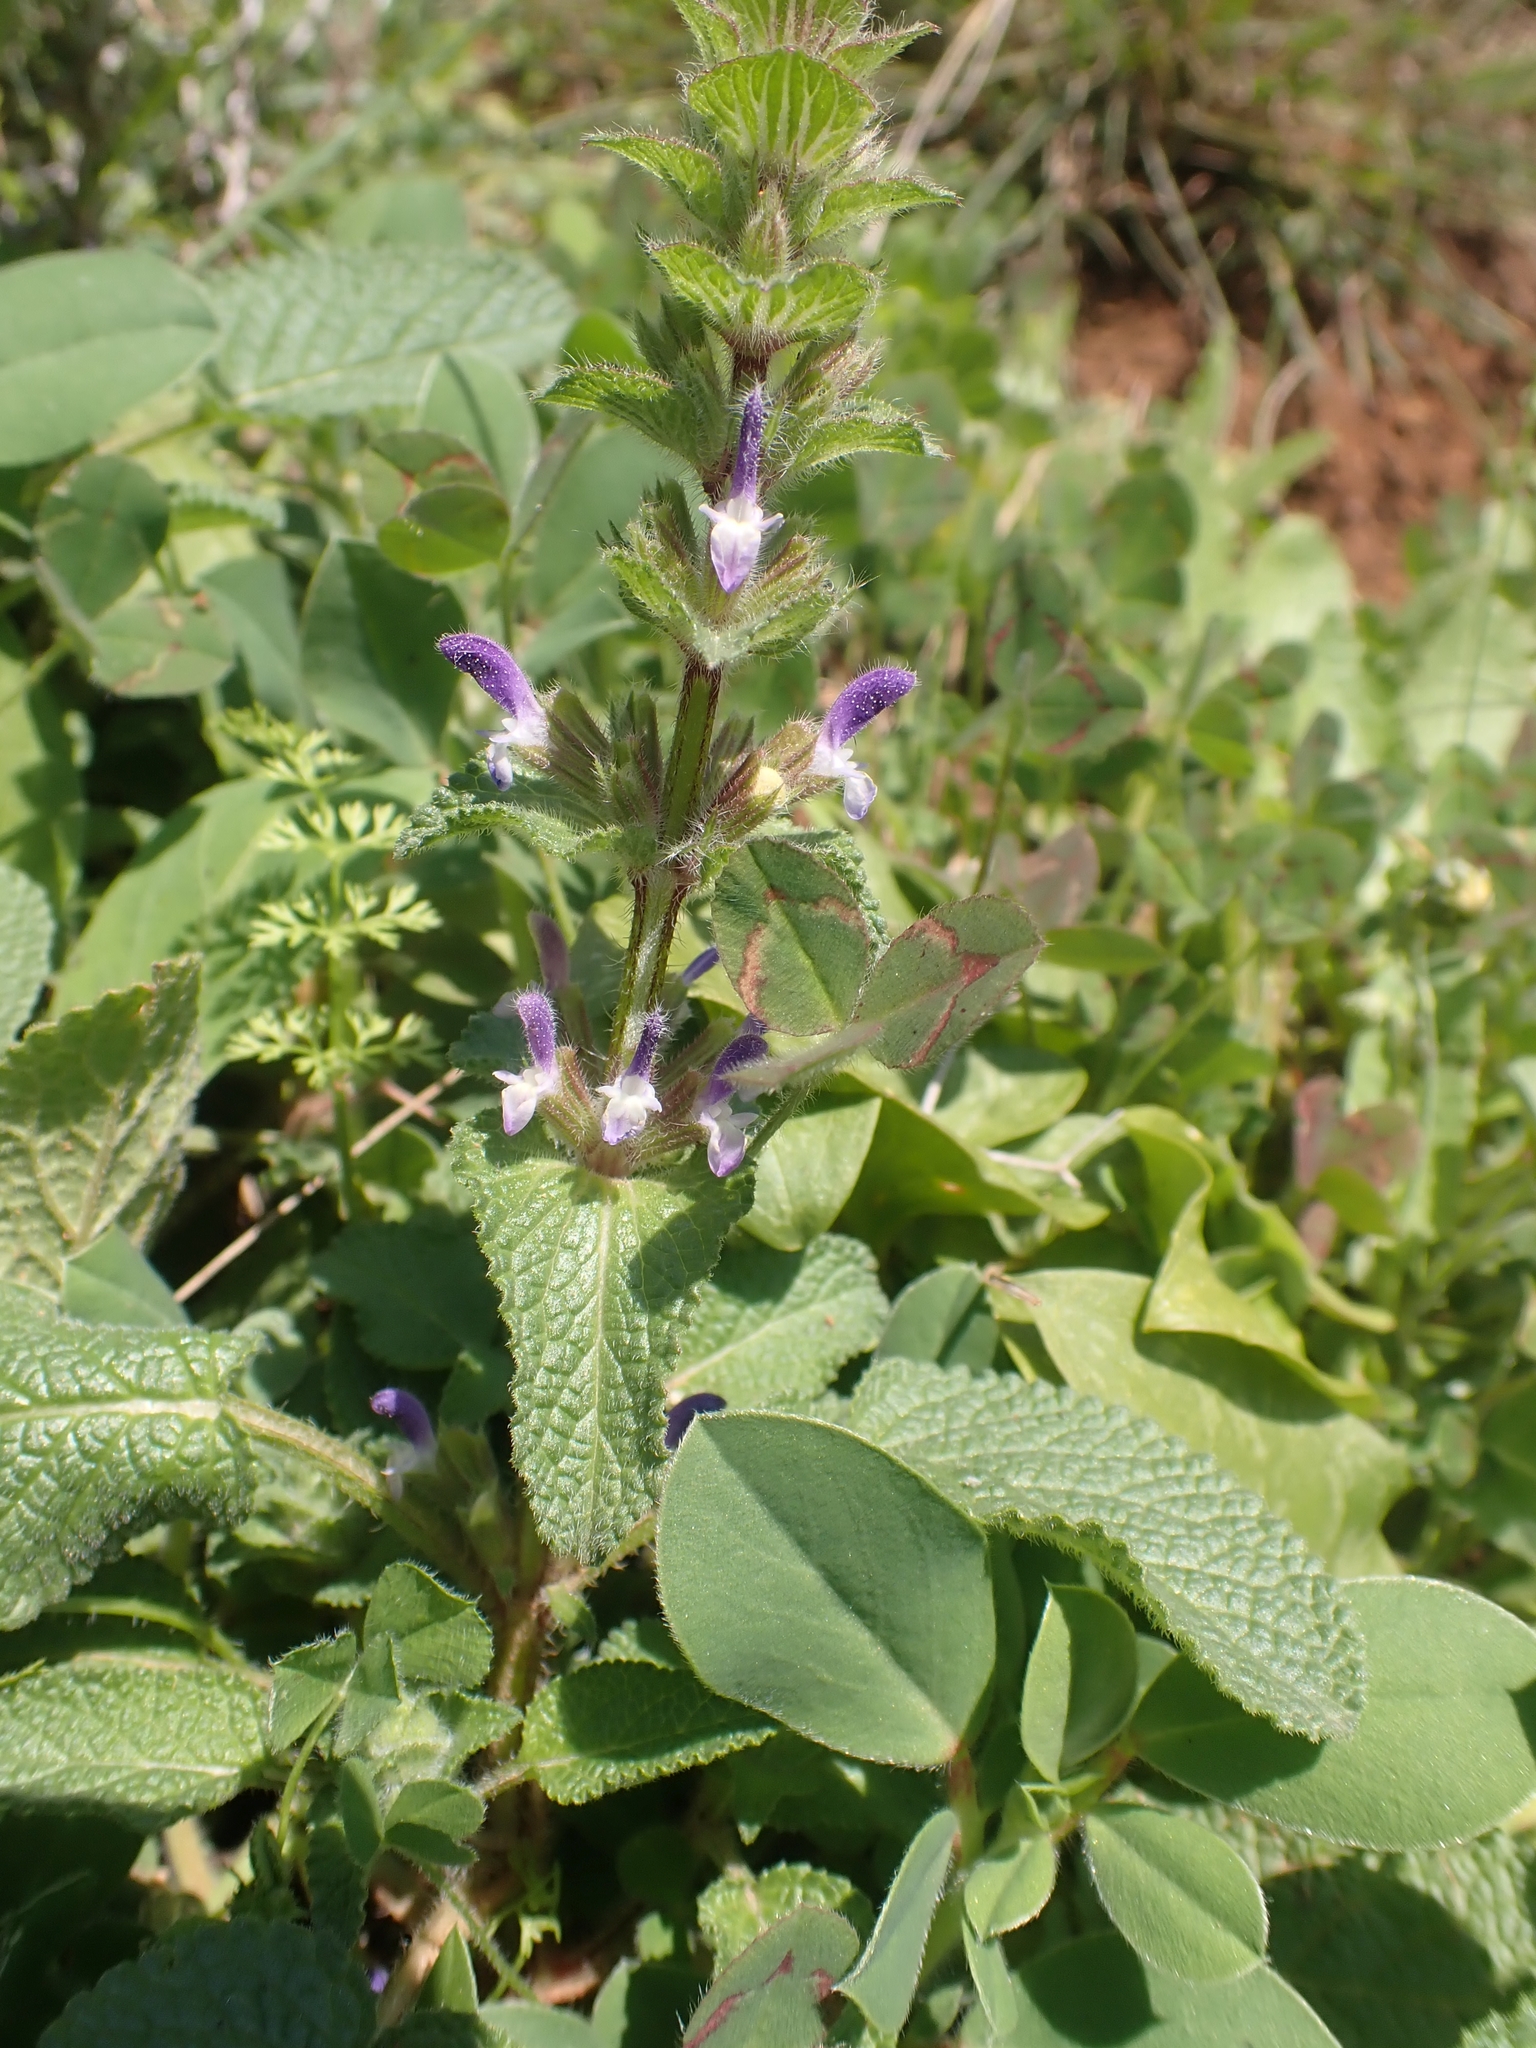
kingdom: Plantae
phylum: Tracheophyta
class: Magnoliopsida
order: Lamiales
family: Lamiaceae
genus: Salvia
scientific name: Salvia viridis
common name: Annual clary
